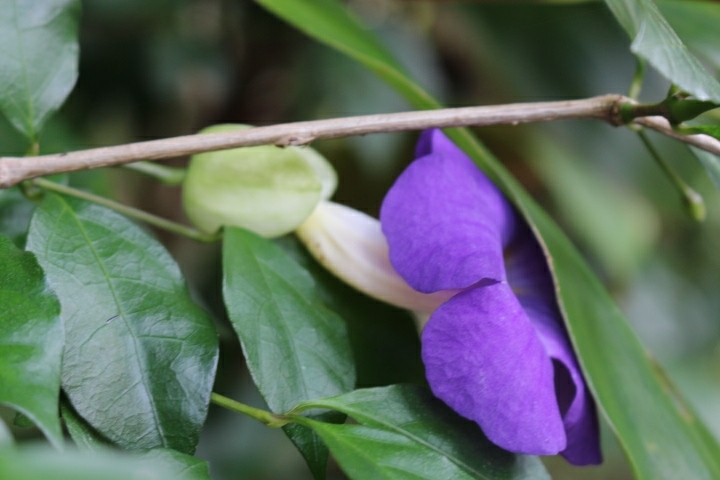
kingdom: Plantae
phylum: Tracheophyta
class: Magnoliopsida
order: Lamiales
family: Acanthaceae
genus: Thunbergia
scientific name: Thunbergia erecta
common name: Bush clockvine
